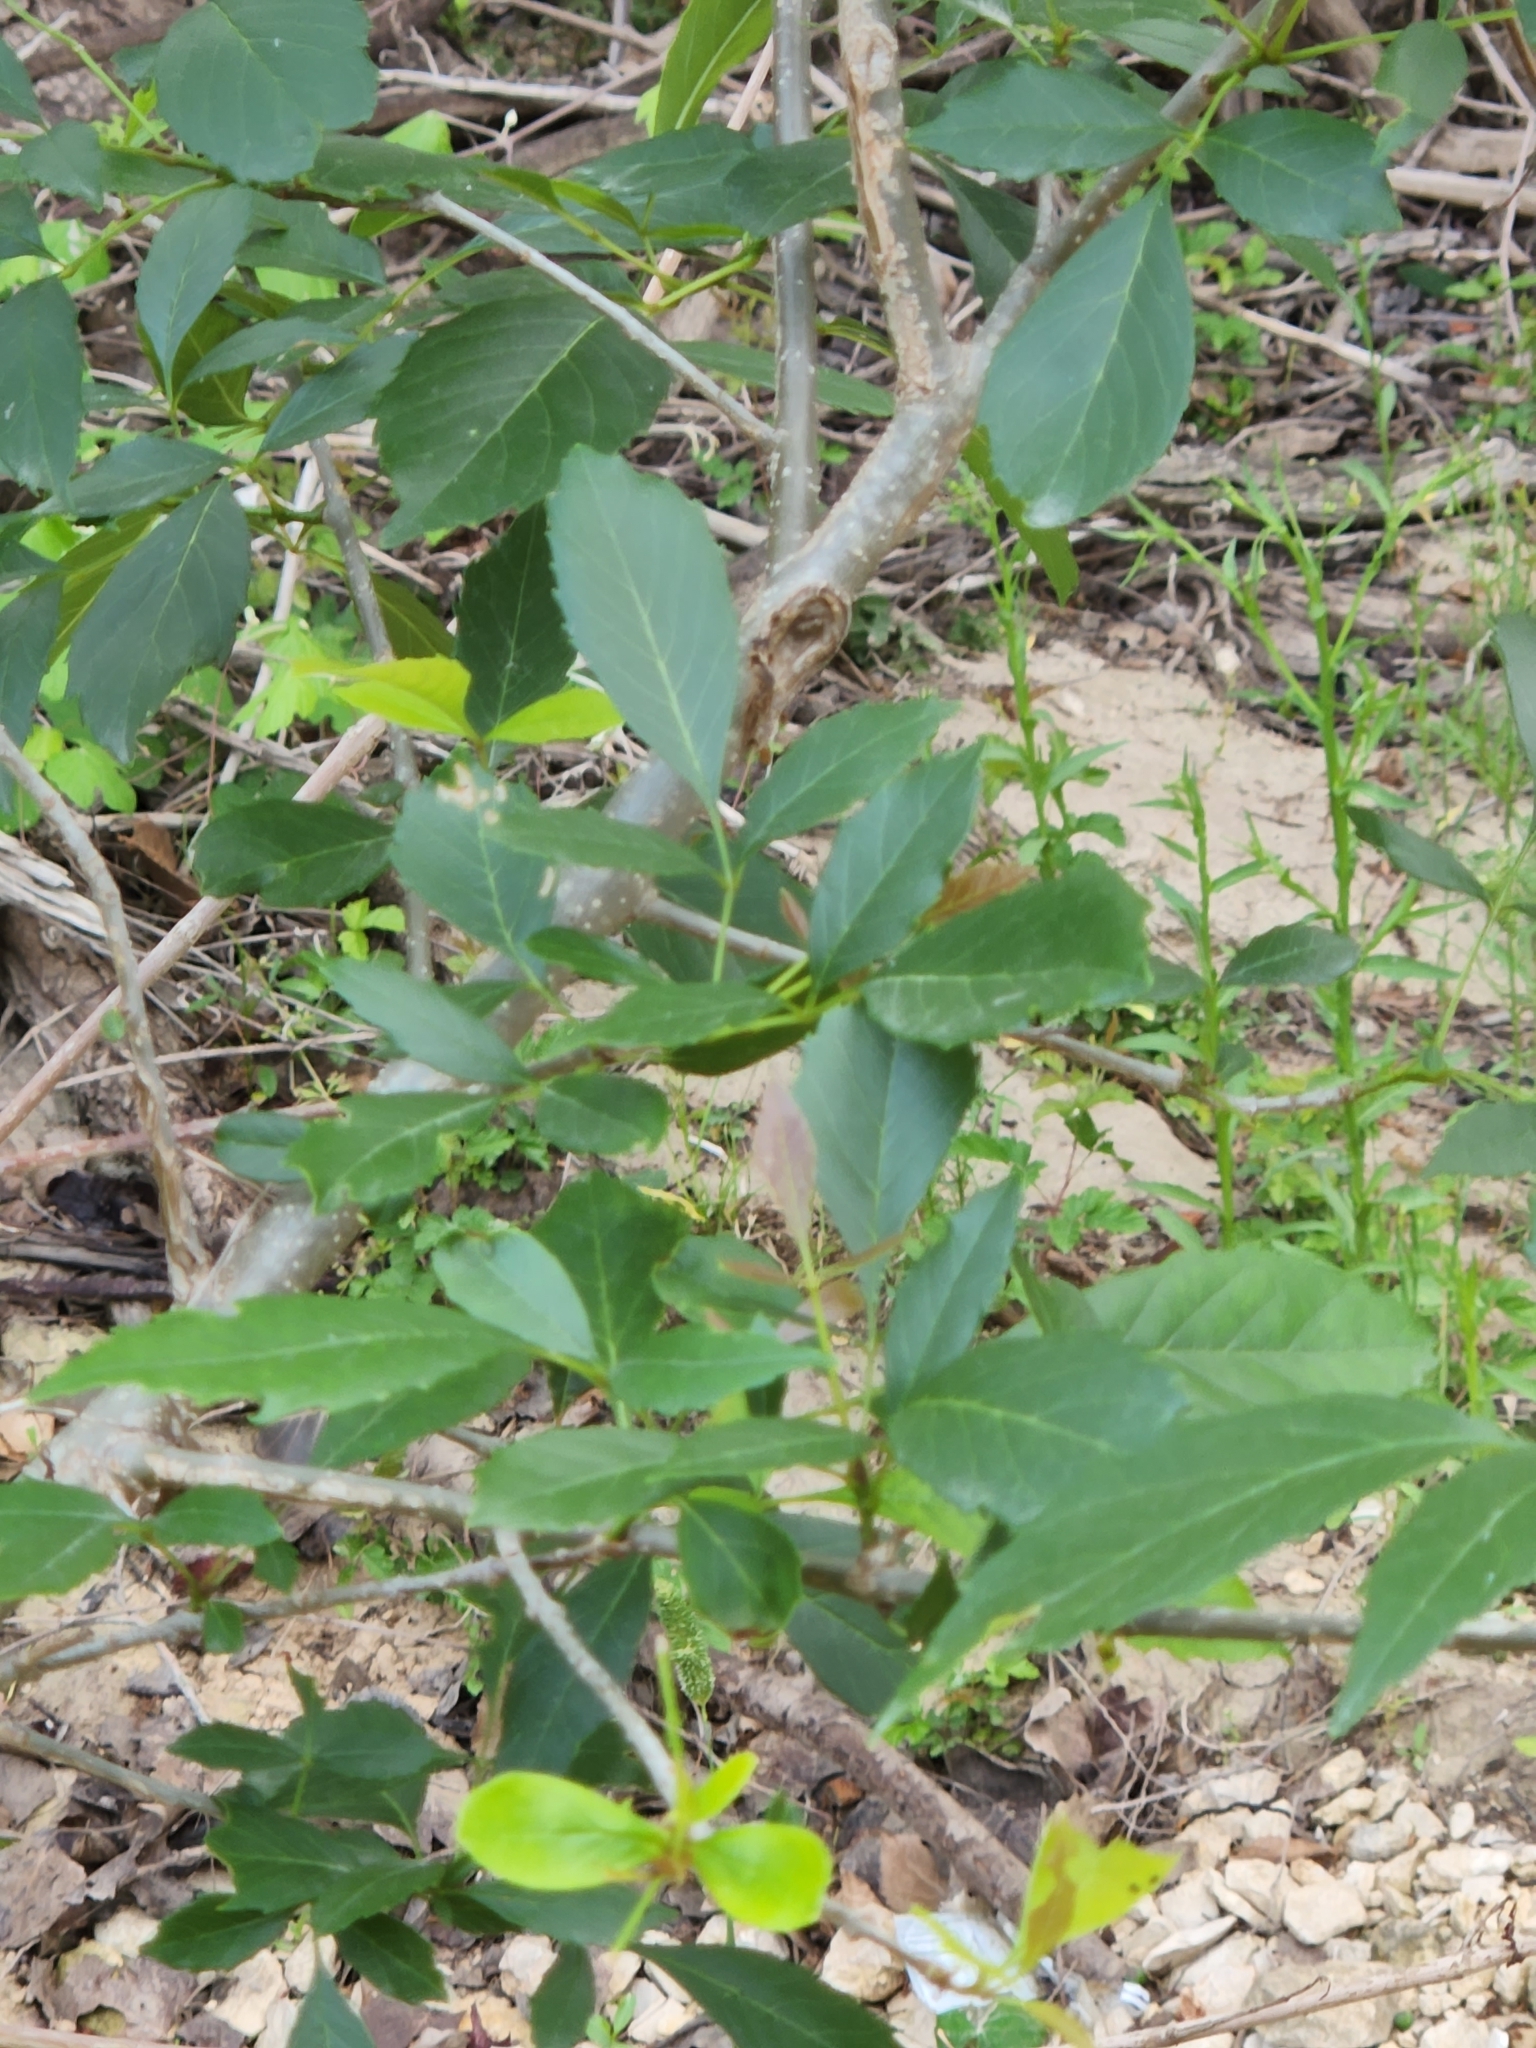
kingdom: Plantae
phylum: Tracheophyta
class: Magnoliopsida
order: Lamiales
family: Oleaceae
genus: Fraxinus
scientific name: Fraxinus berlandieriana
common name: Berlandier ash
